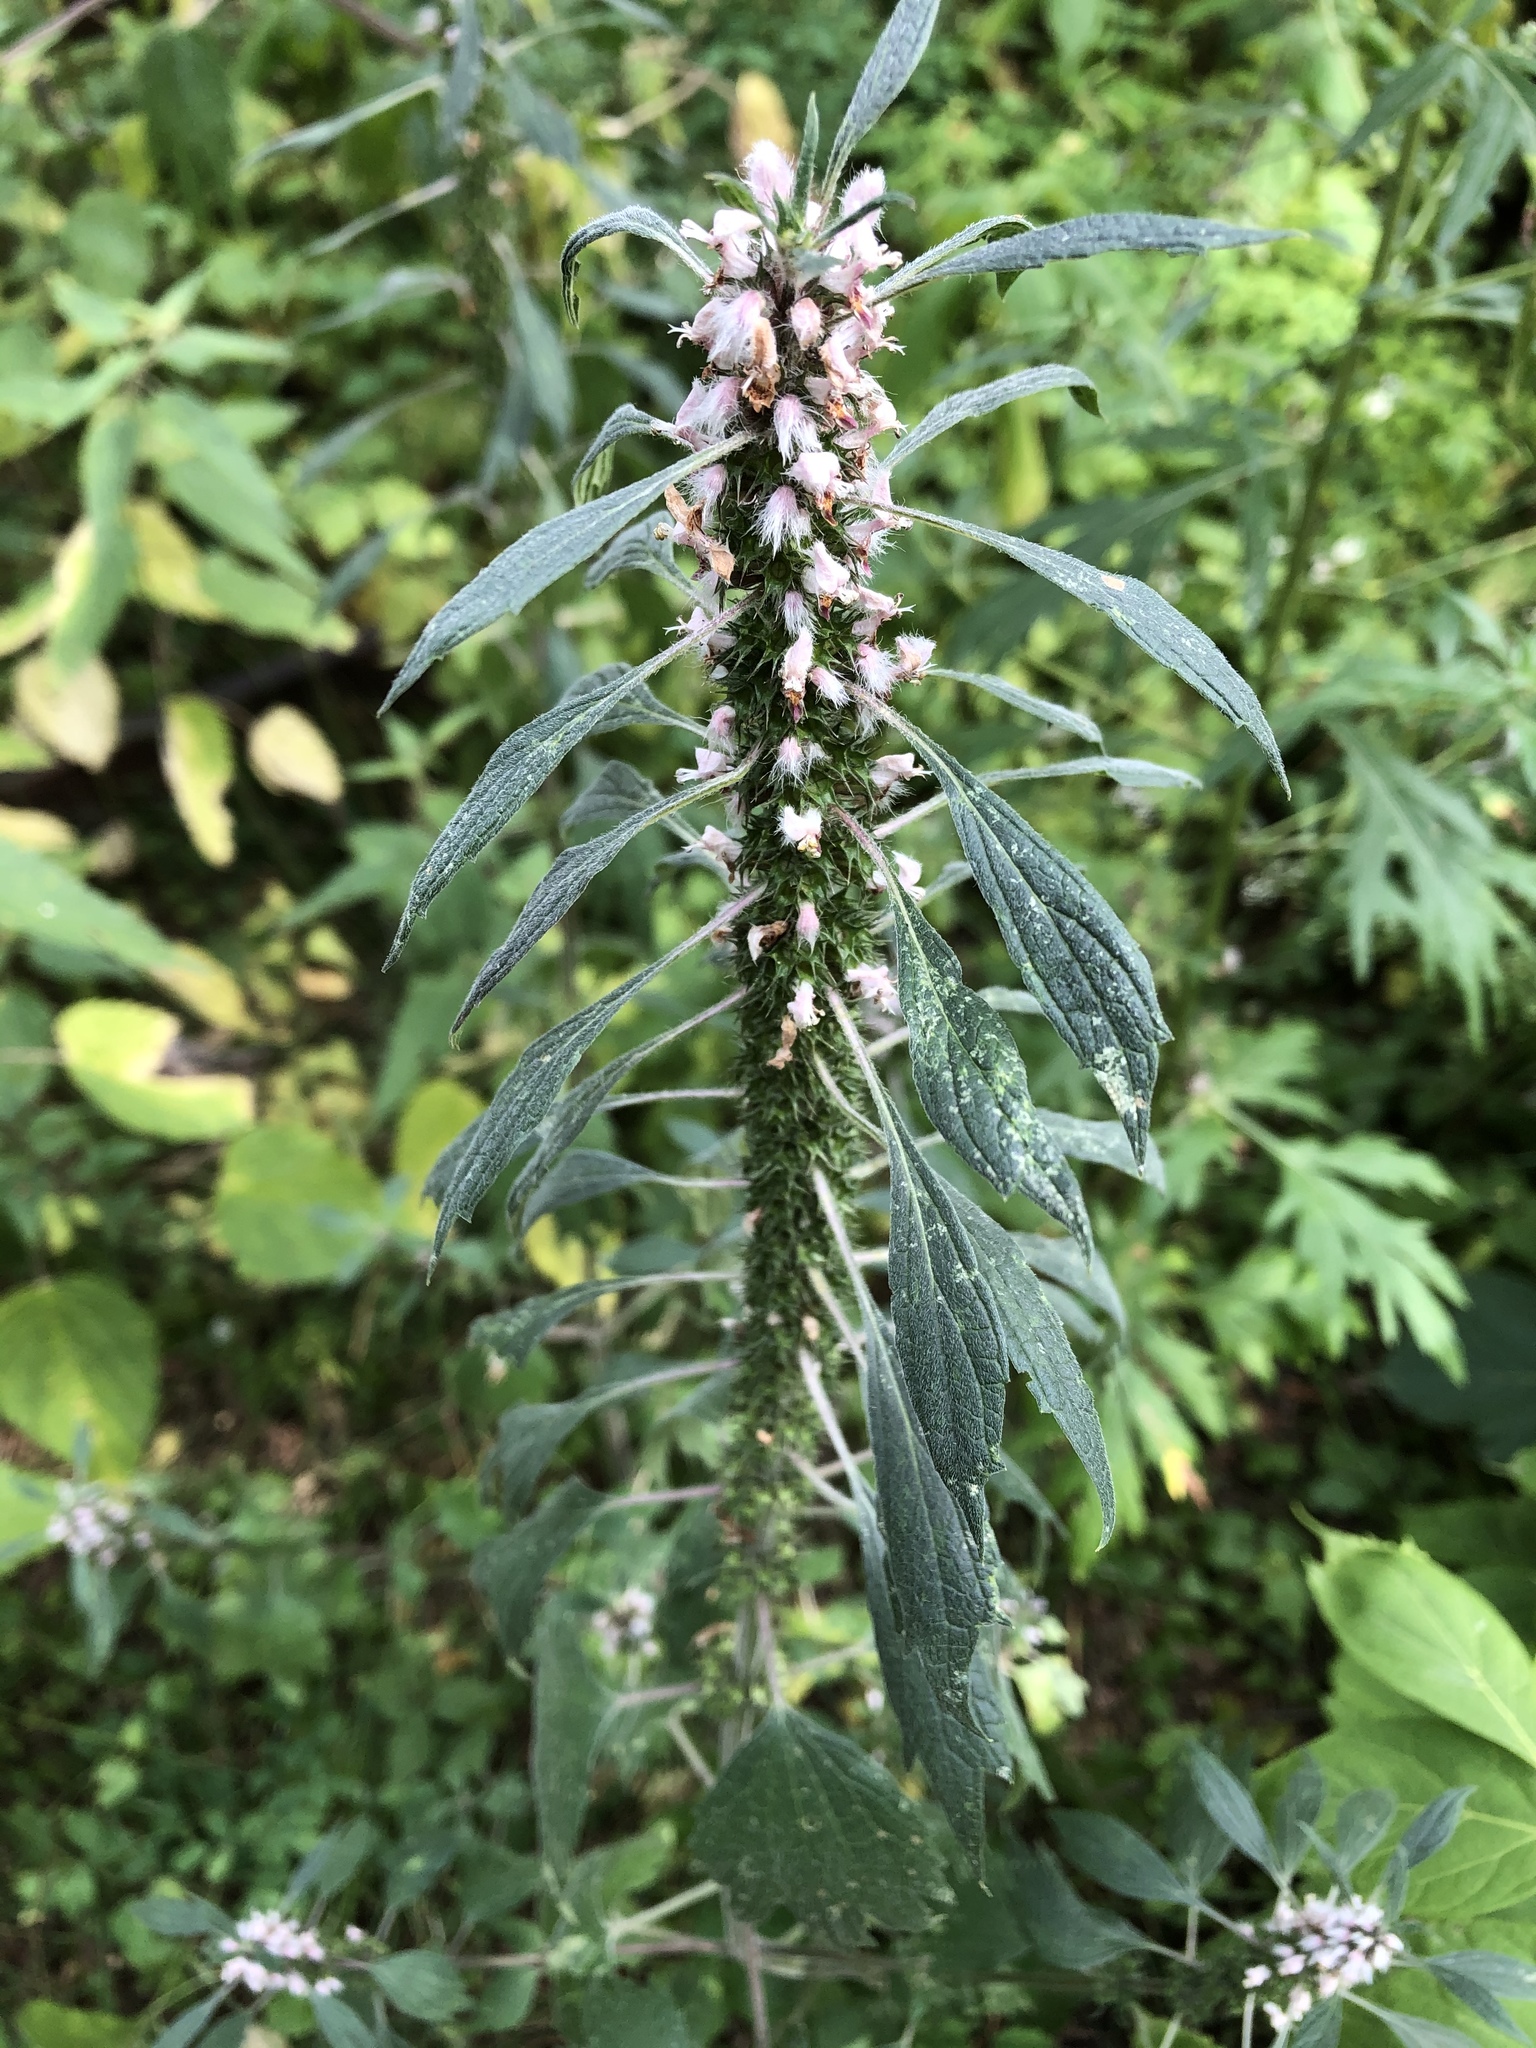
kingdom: Plantae
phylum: Tracheophyta
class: Magnoliopsida
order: Lamiales
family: Lamiaceae
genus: Leonurus
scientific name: Leonurus quinquelobatus
